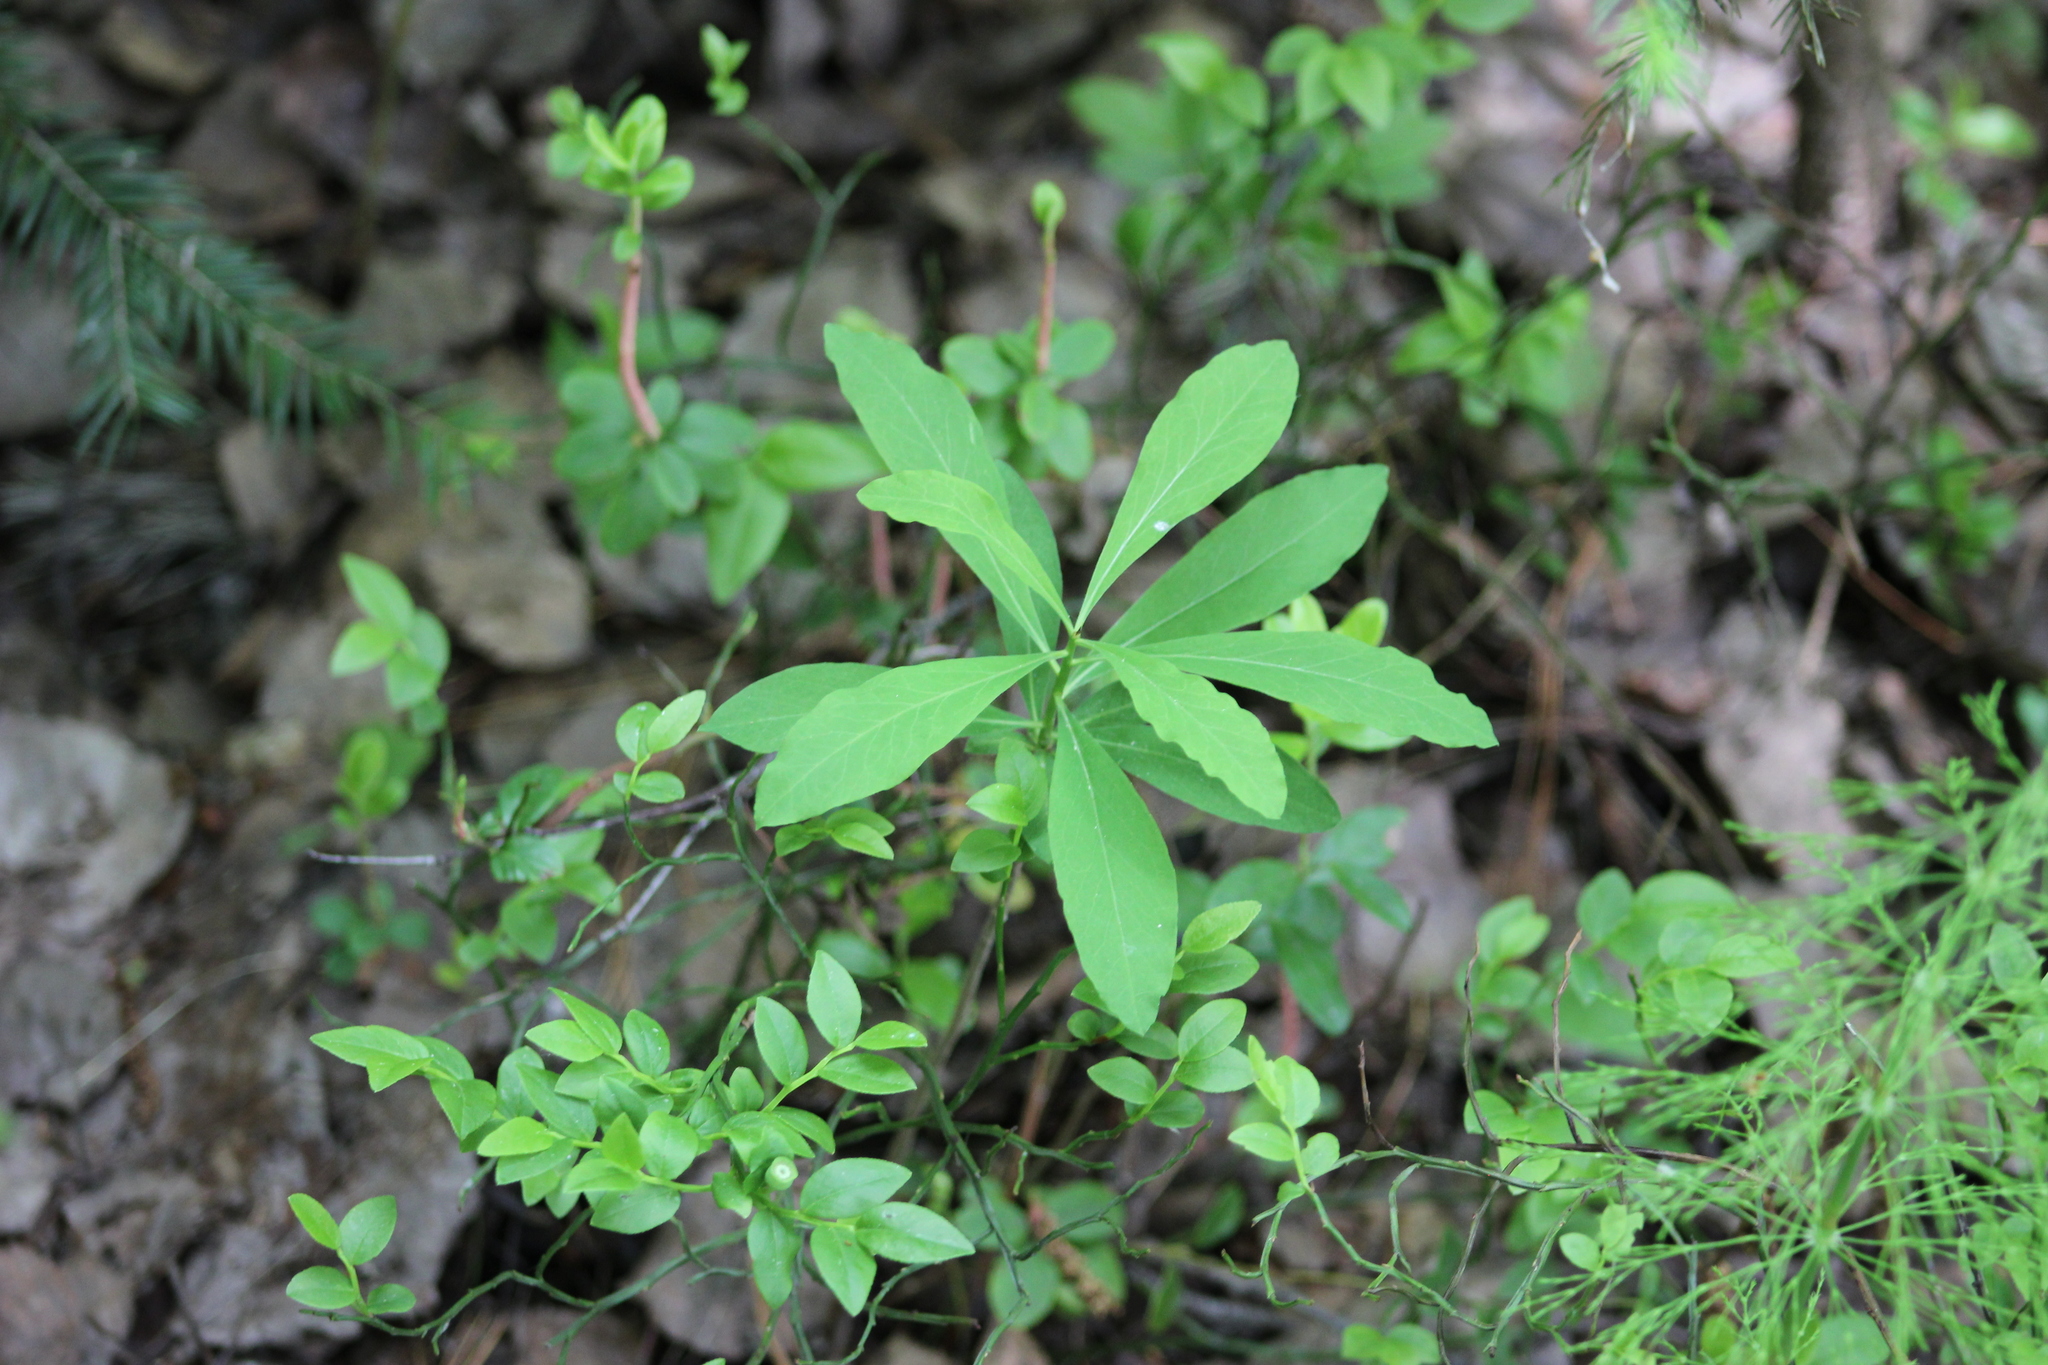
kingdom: Plantae
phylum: Tracheophyta
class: Magnoliopsida
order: Malvales
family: Thymelaeaceae
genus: Daphne
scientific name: Daphne mezereum
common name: Mezereon
